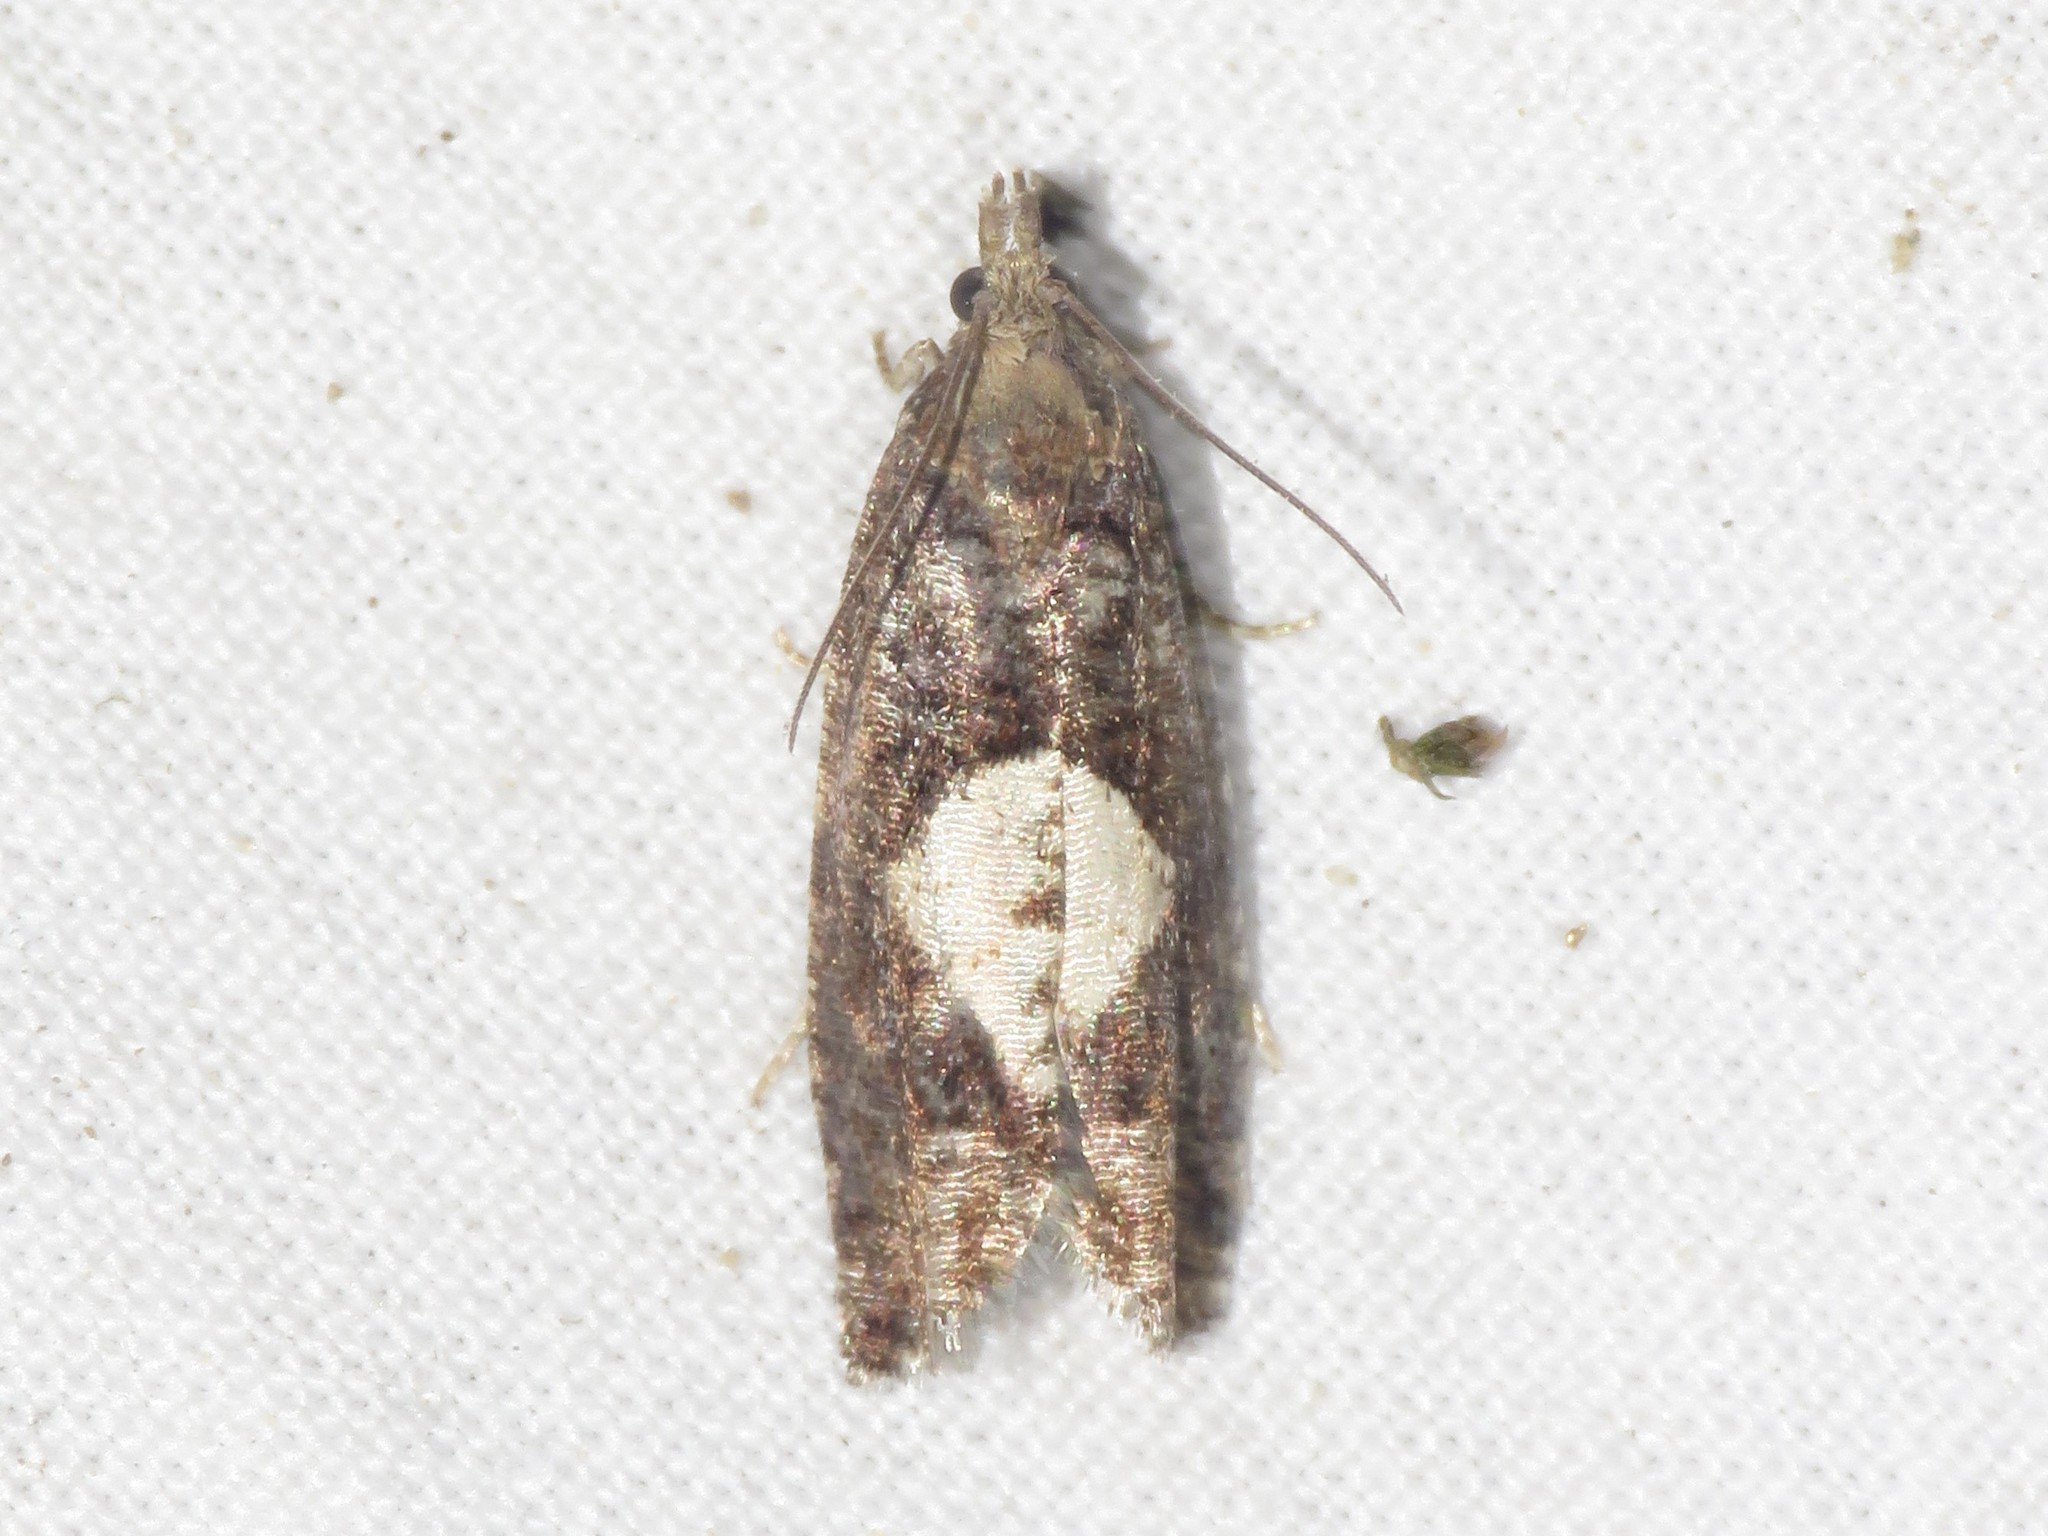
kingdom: Animalia
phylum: Arthropoda
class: Insecta
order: Lepidoptera
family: Tortricidae
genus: Epinotia
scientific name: Epinotia solandriana
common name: Variable bell
